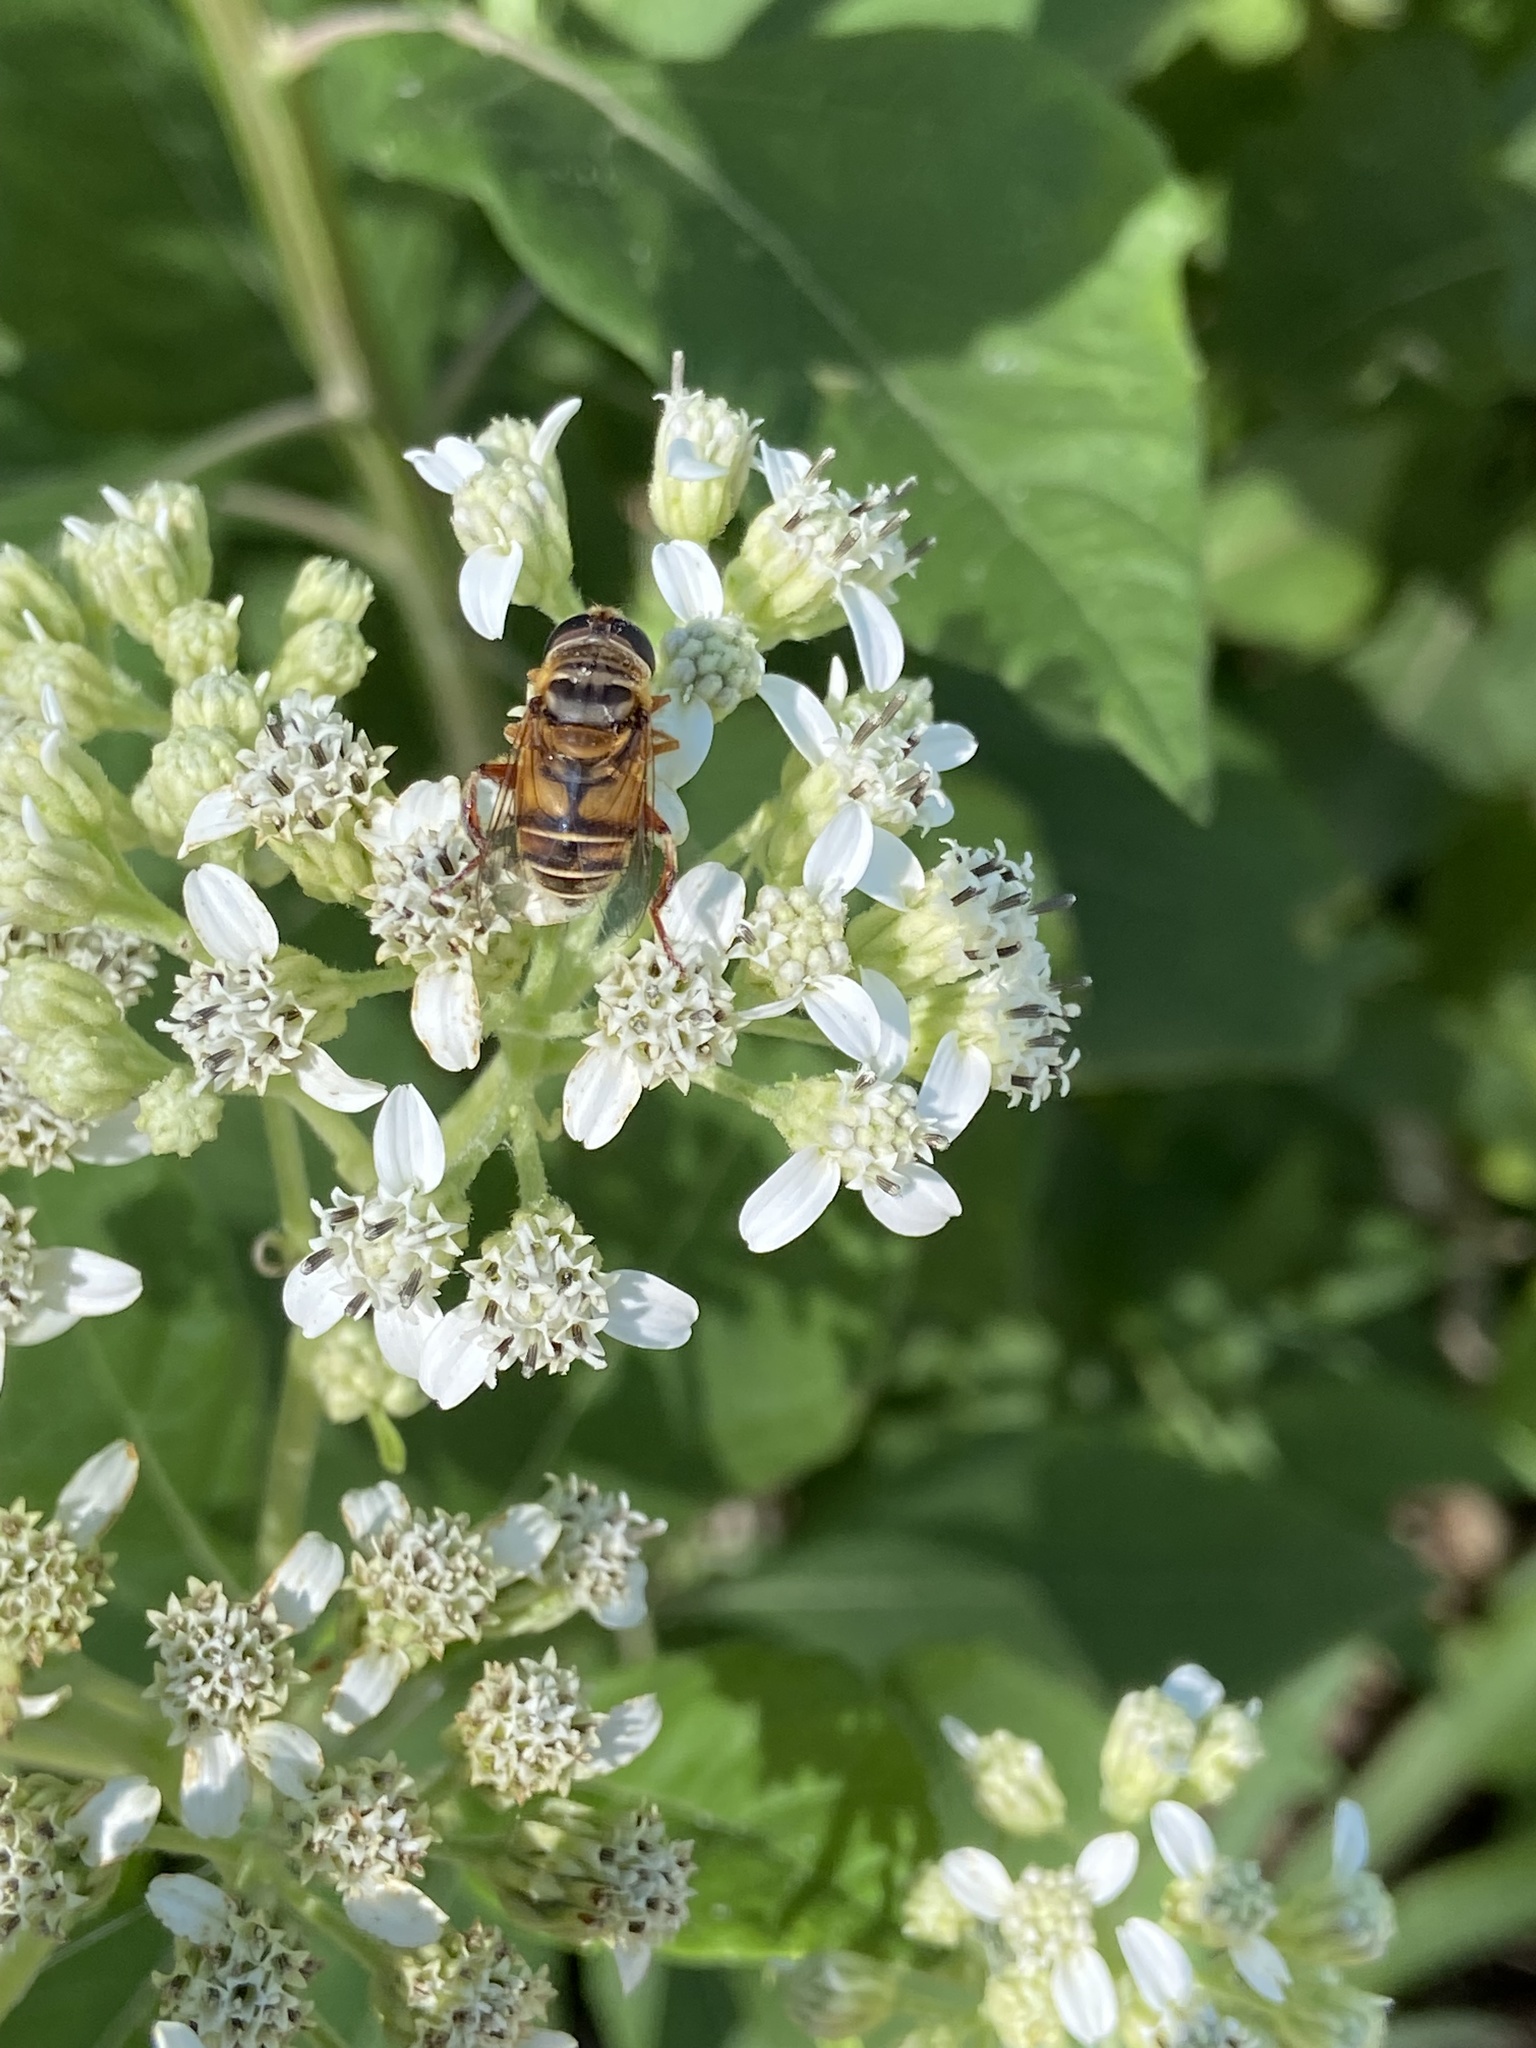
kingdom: Animalia
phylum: Arthropoda
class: Insecta
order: Diptera
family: Syrphidae
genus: Palpada
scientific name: Palpada vinetorum
